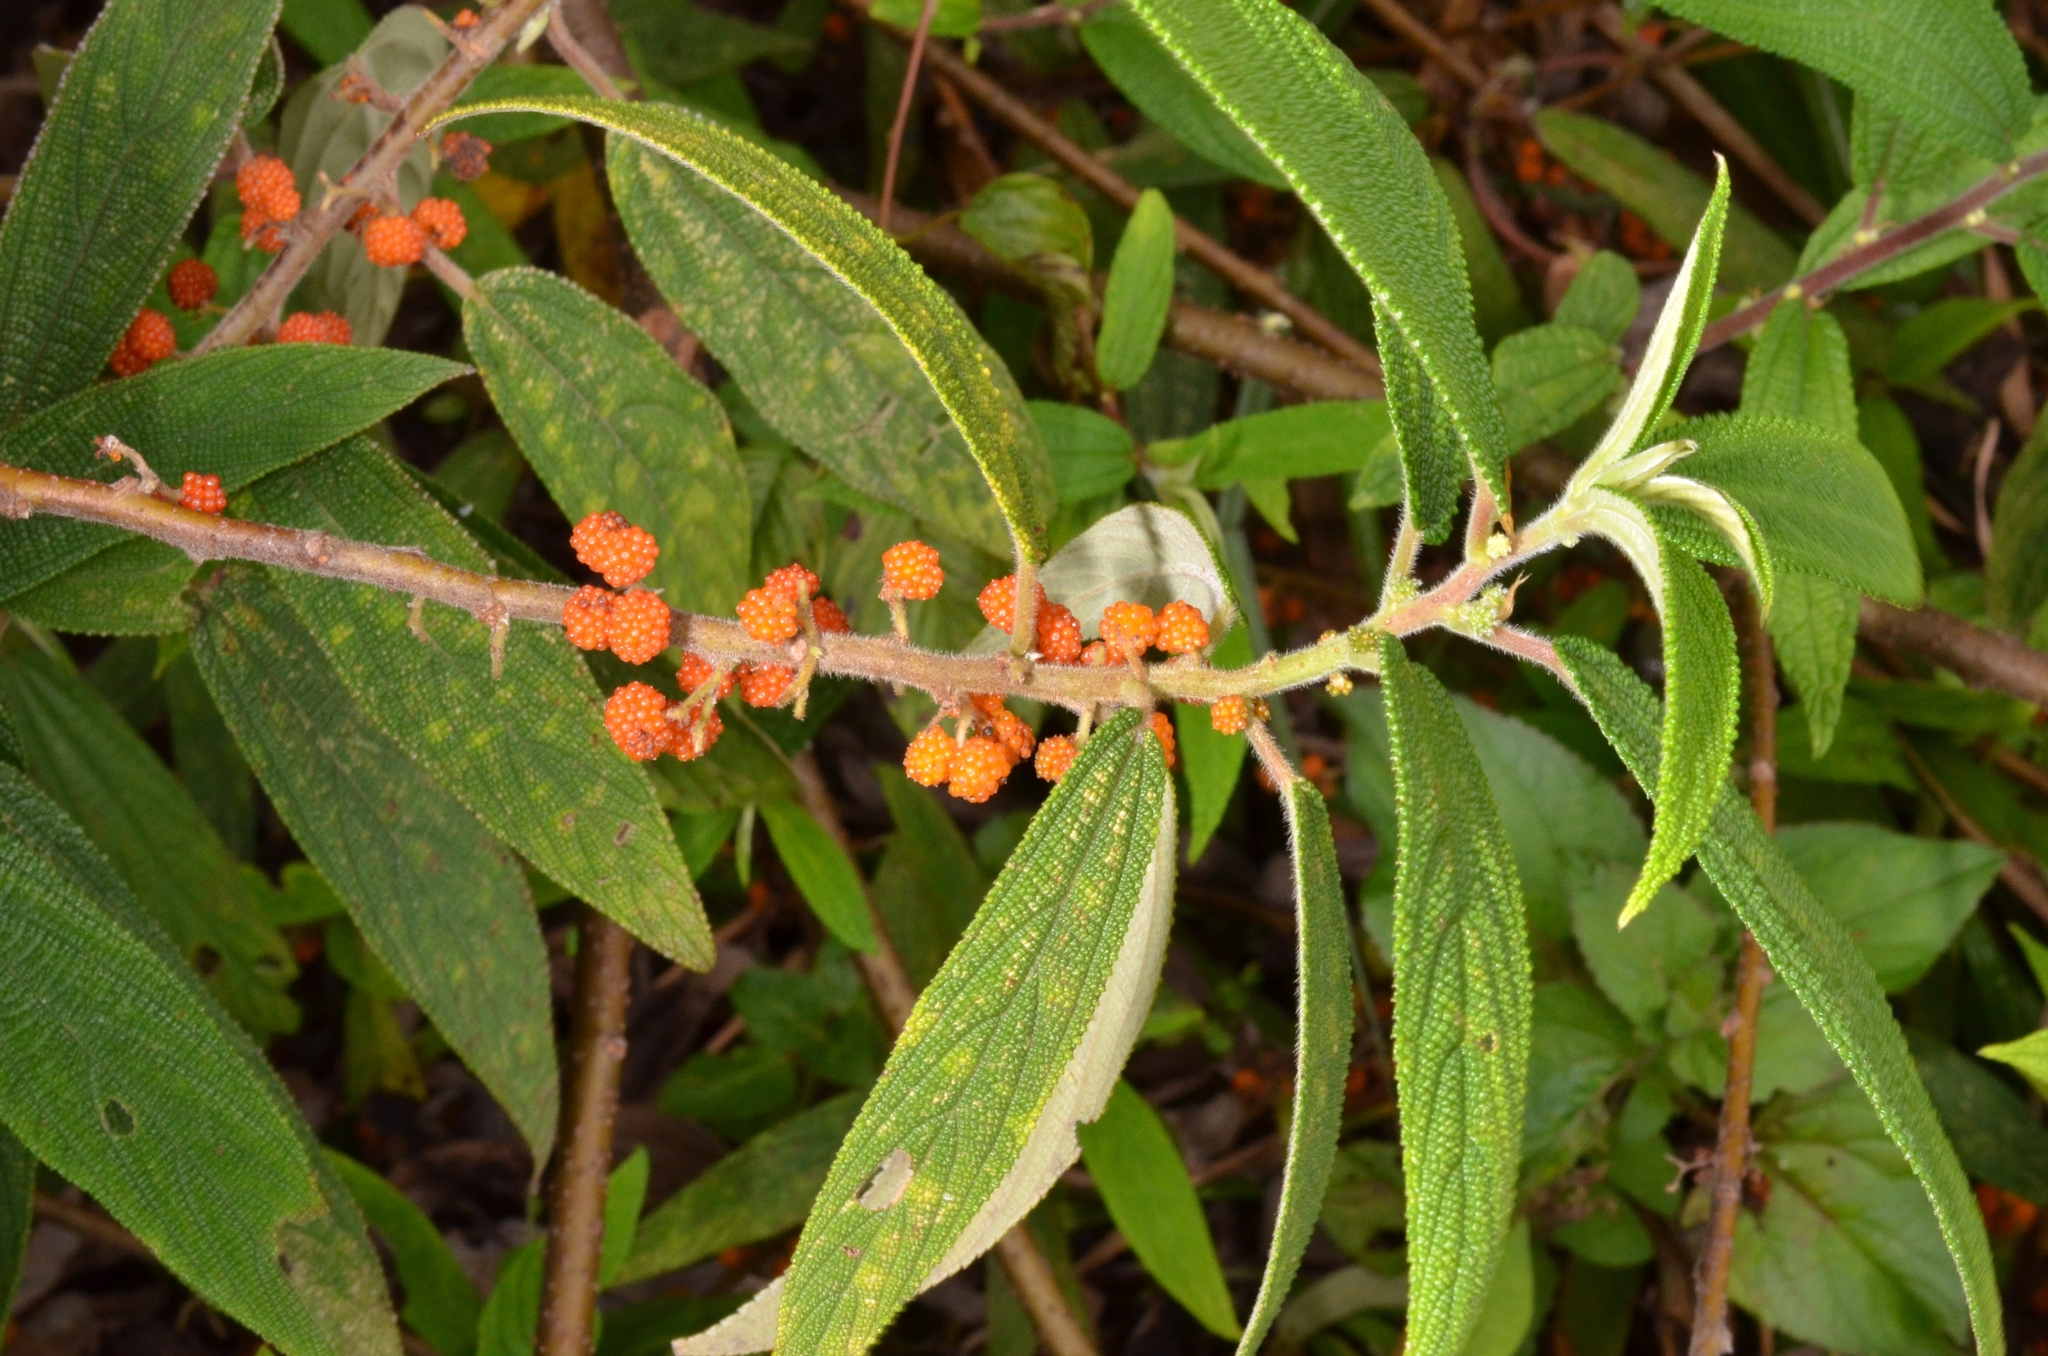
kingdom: Plantae
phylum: Tracheophyta
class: Magnoliopsida
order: Rosales
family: Urticaceae
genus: Debregeasia
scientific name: Debregeasia longifolia
